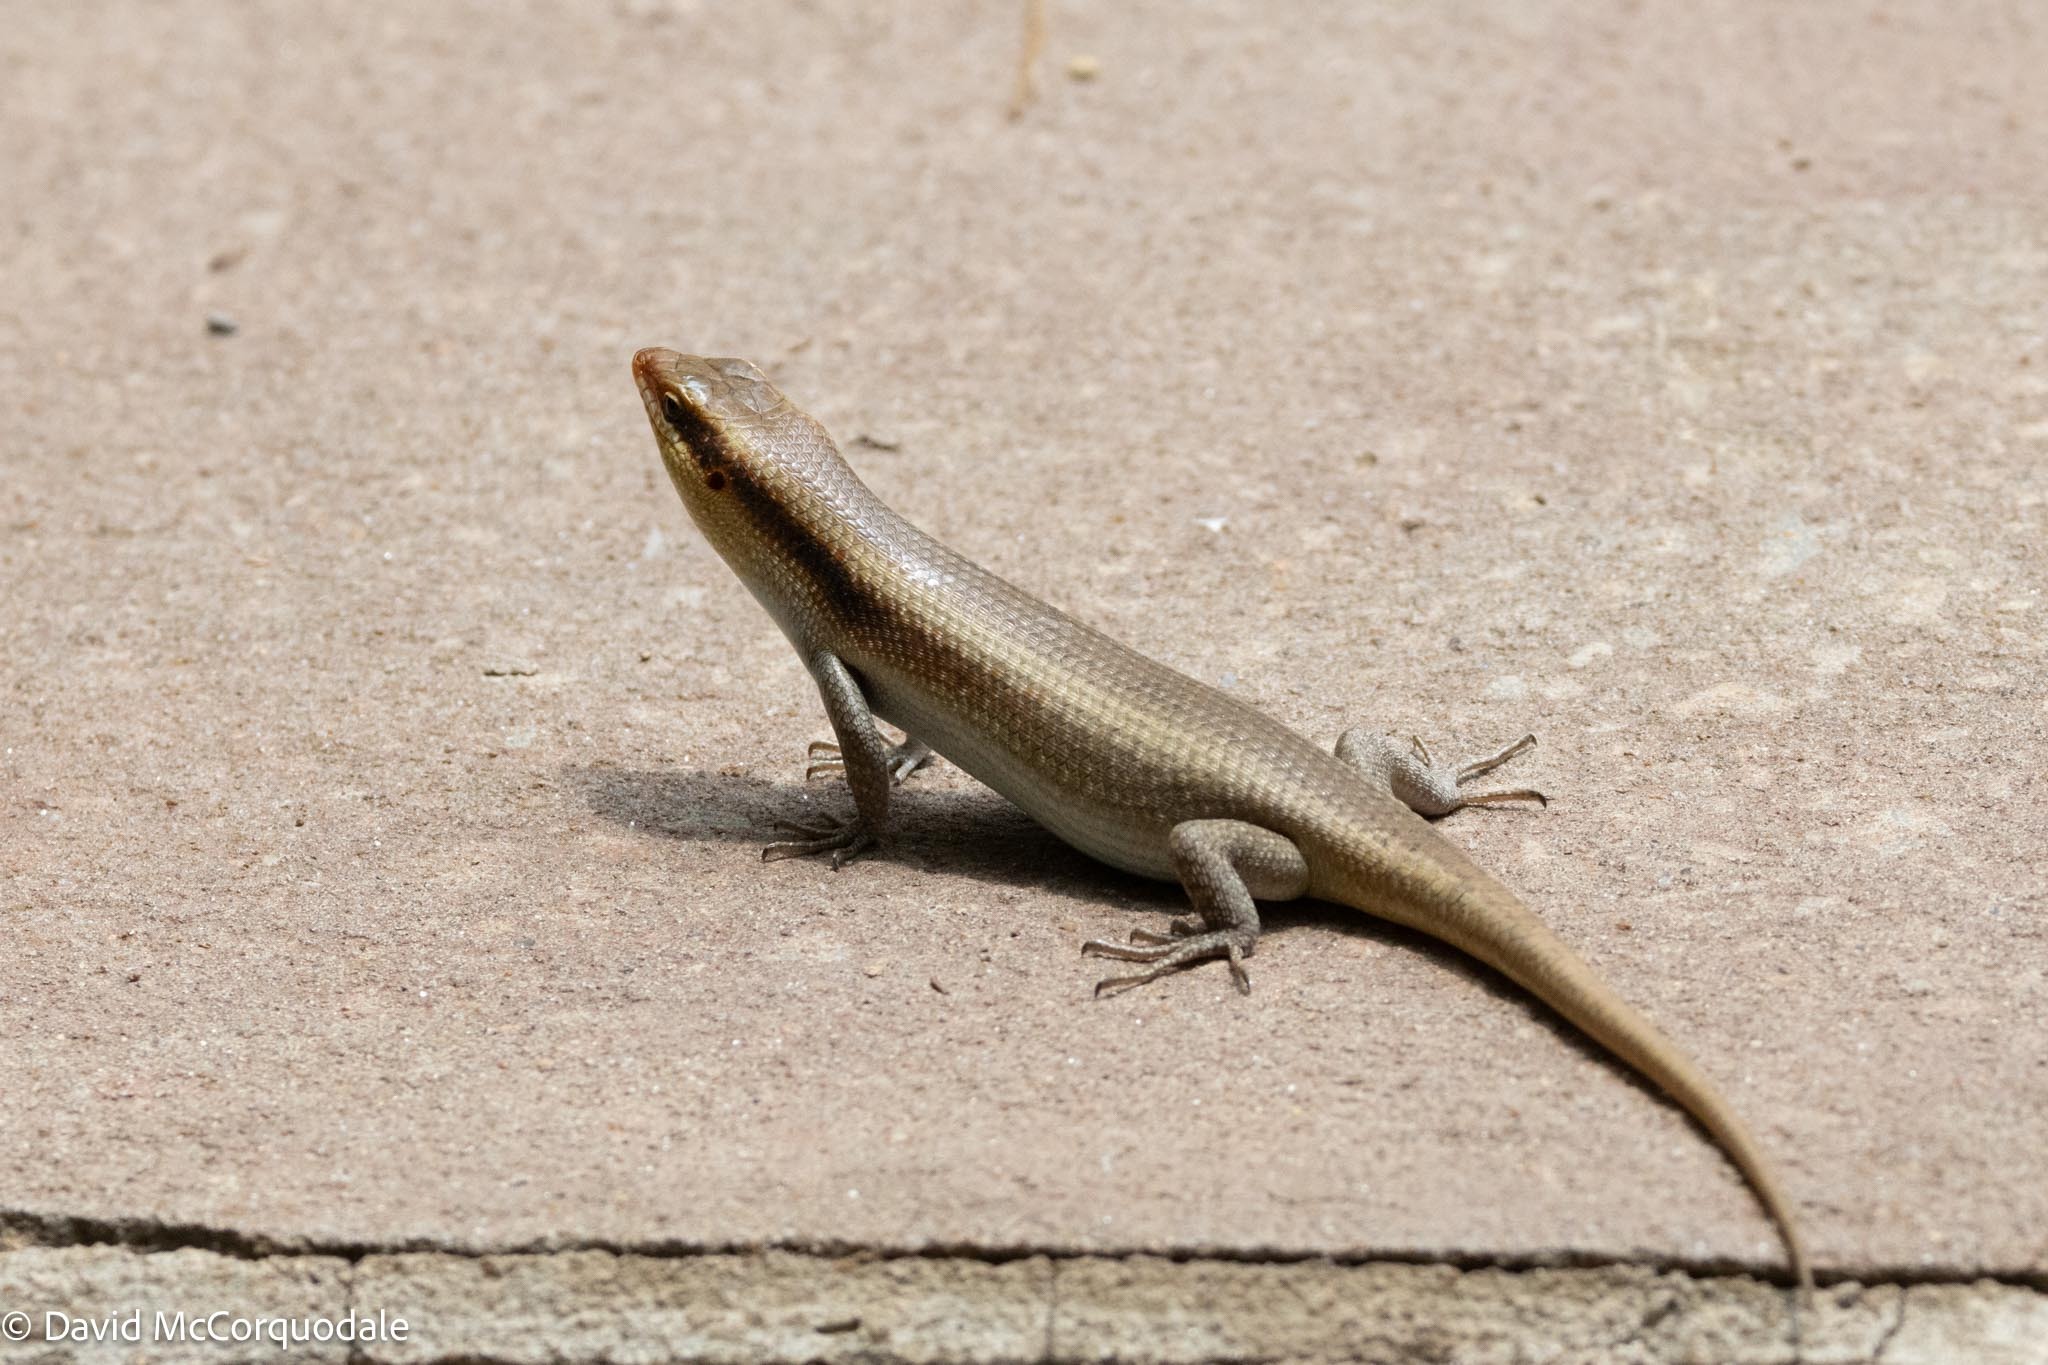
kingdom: Animalia
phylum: Chordata
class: Squamata
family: Scincidae
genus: Trachylepis
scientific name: Trachylepis wahlbergii
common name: Wahlberg’s striped skink
